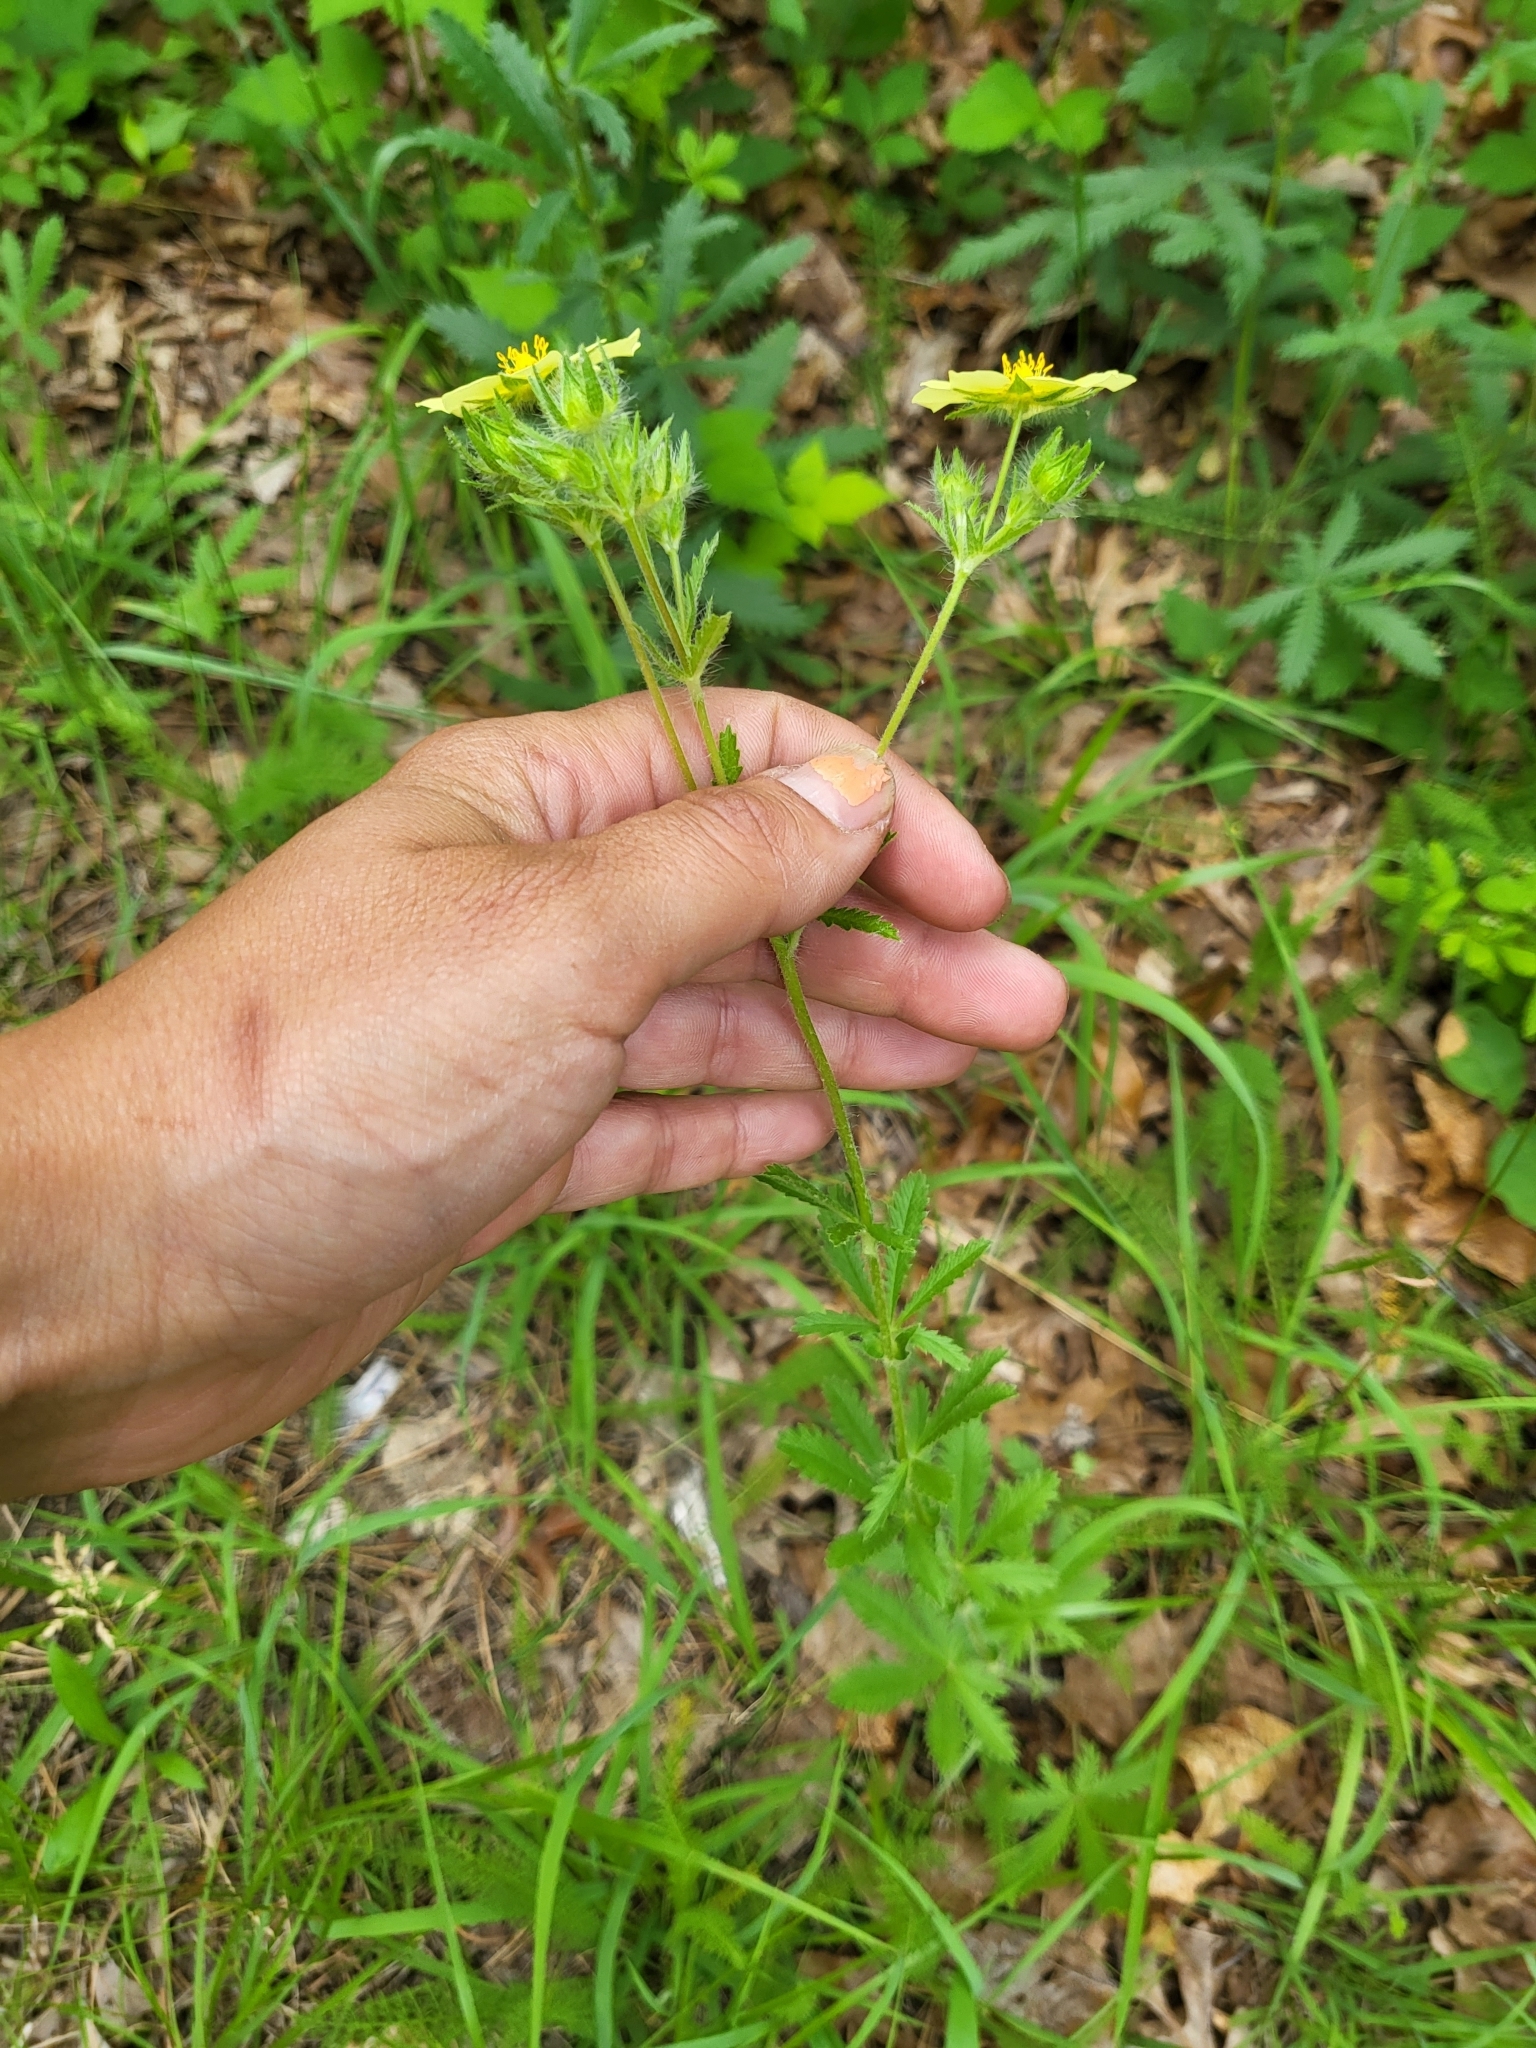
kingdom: Plantae
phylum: Tracheophyta
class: Magnoliopsida
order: Rosales
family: Rosaceae
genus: Potentilla
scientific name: Potentilla recta
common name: Sulphur cinquefoil
